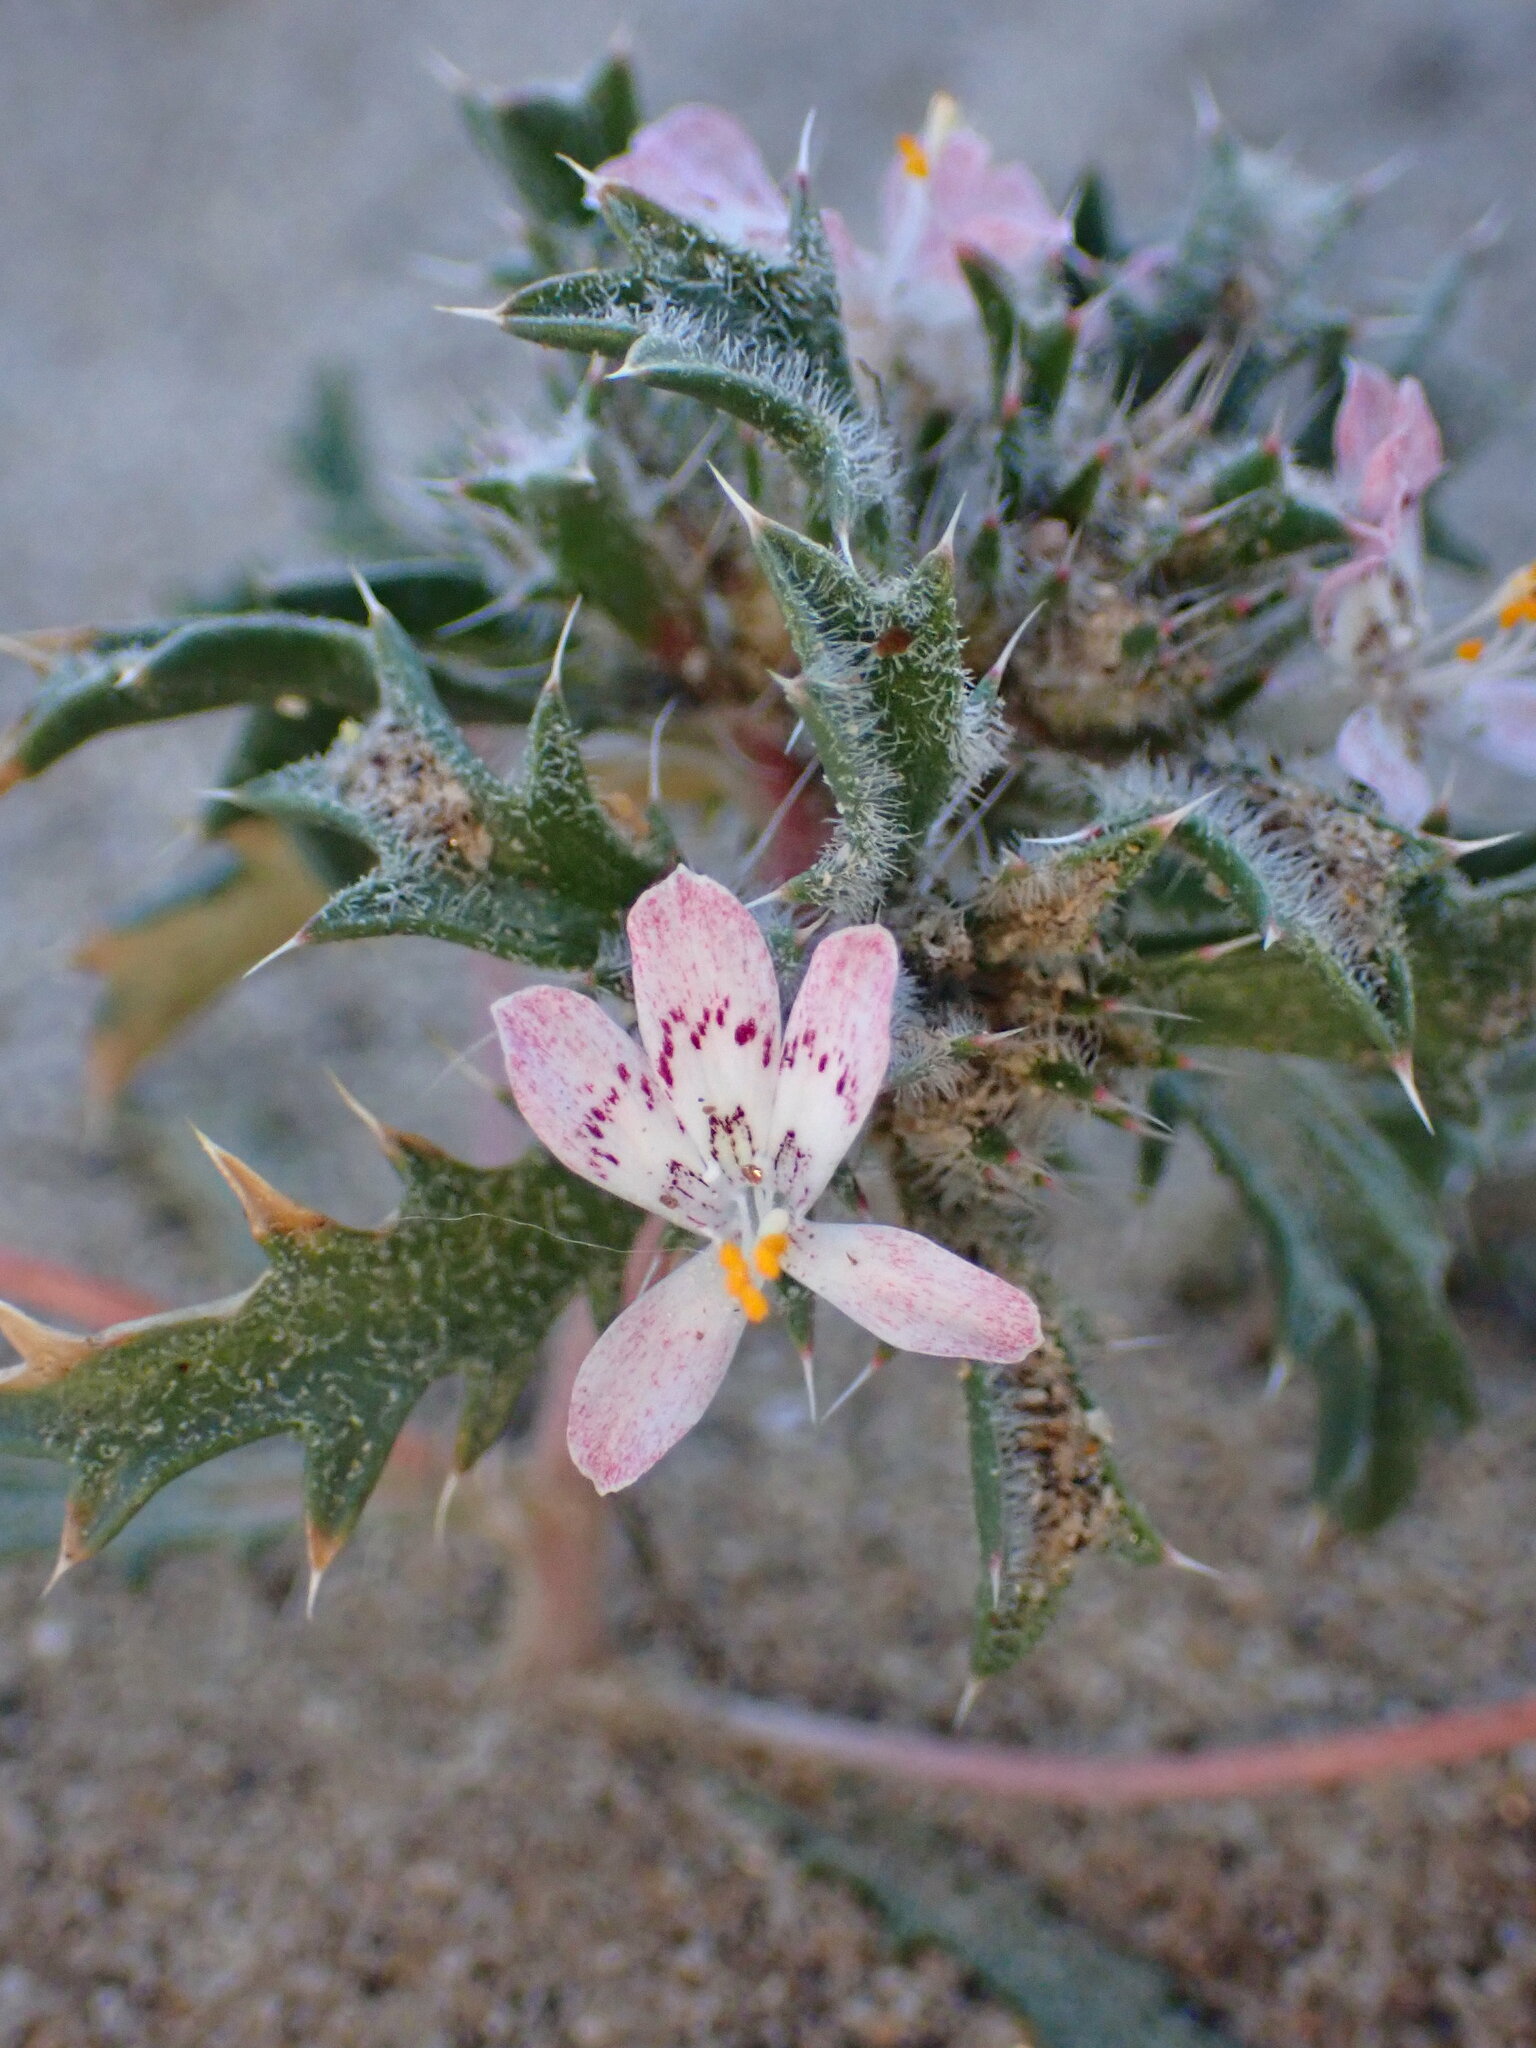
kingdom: Plantae
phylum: Tracheophyta
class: Magnoliopsida
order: Ericales
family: Polemoniaceae
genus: Loeseliastrum
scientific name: Loeseliastrum matthewsii
